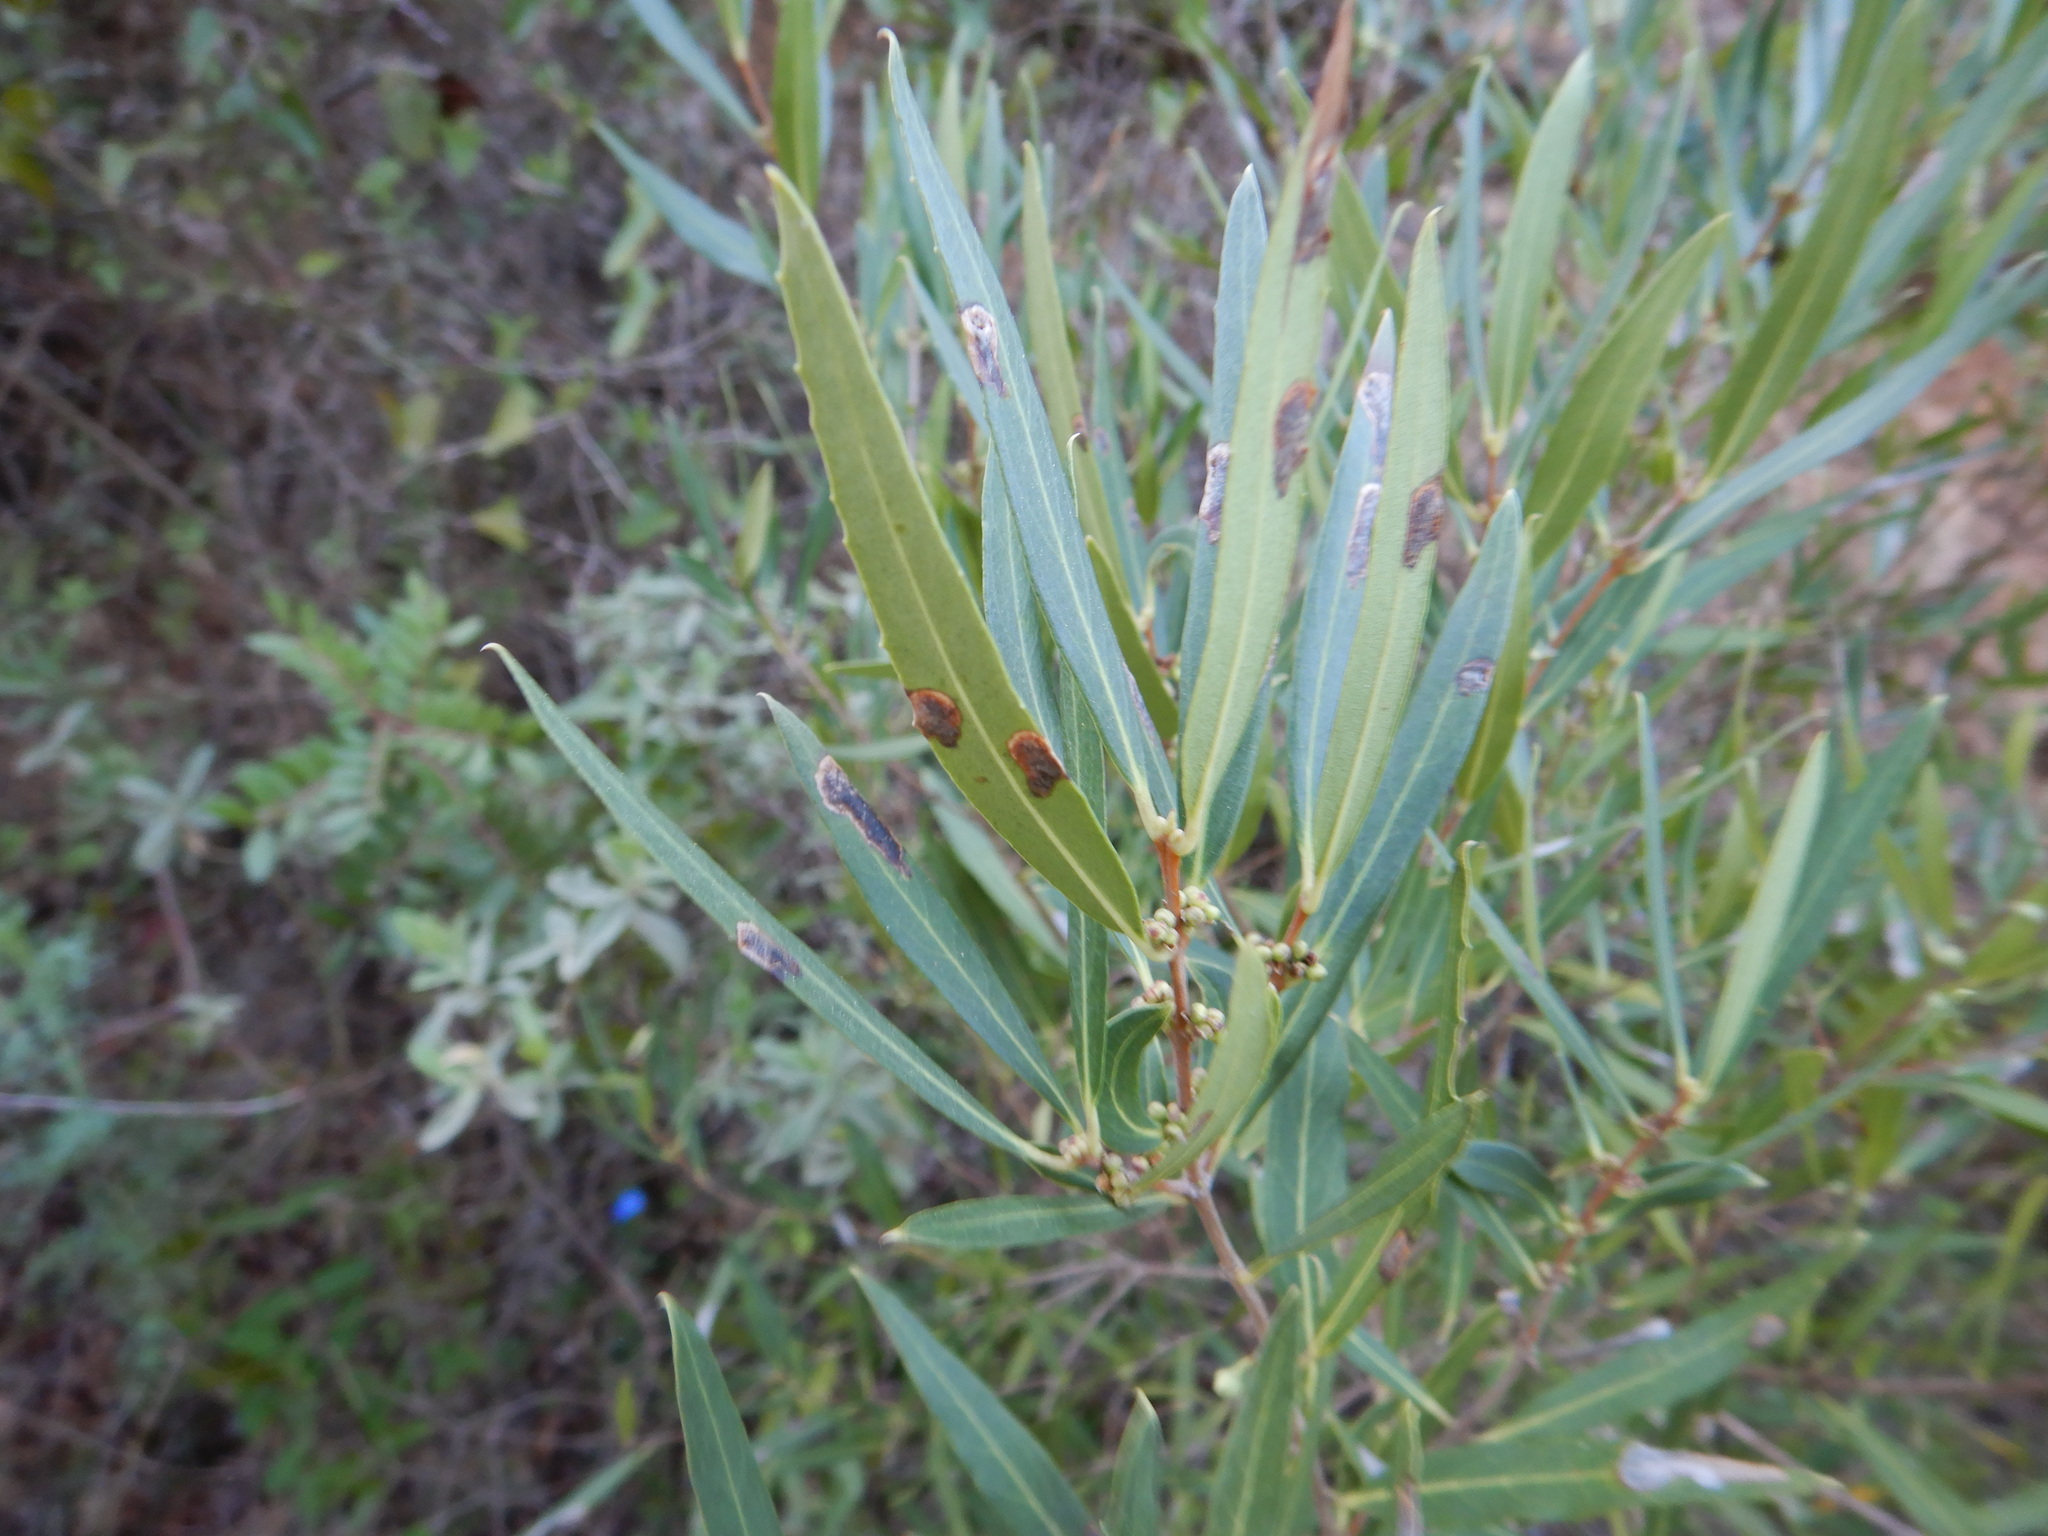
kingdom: Plantae
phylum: Tracheophyta
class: Magnoliopsida
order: Lamiales
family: Oleaceae
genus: Phillyrea
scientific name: Phillyrea angustifolia
